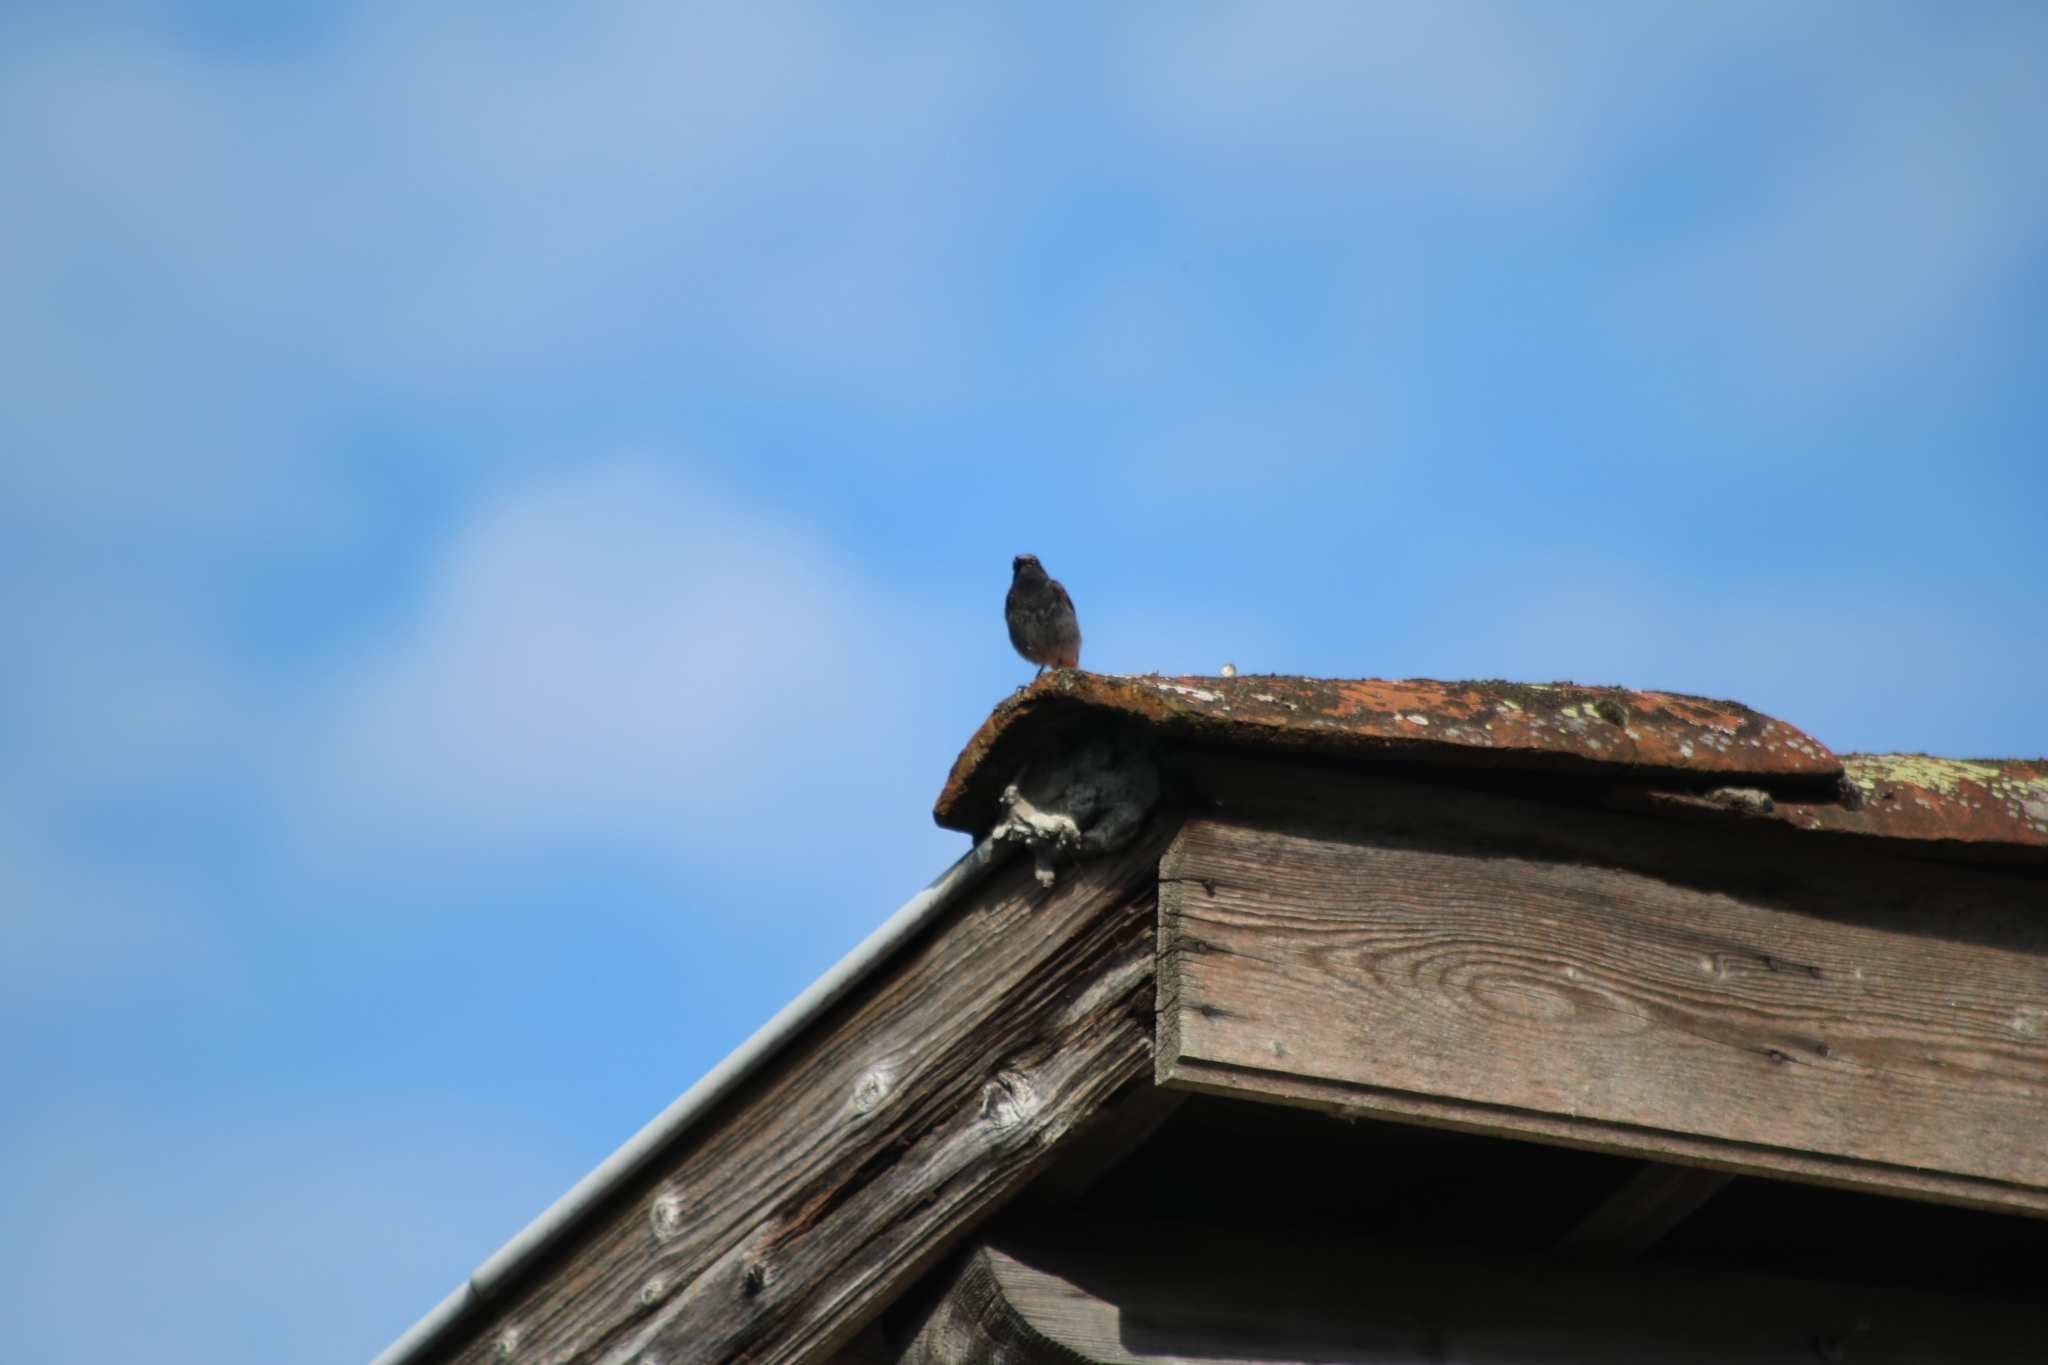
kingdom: Animalia
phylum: Chordata
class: Aves
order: Passeriformes
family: Muscicapidae
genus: Phoenicurus
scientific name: Phoenicurus ochruros
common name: Black redstart
